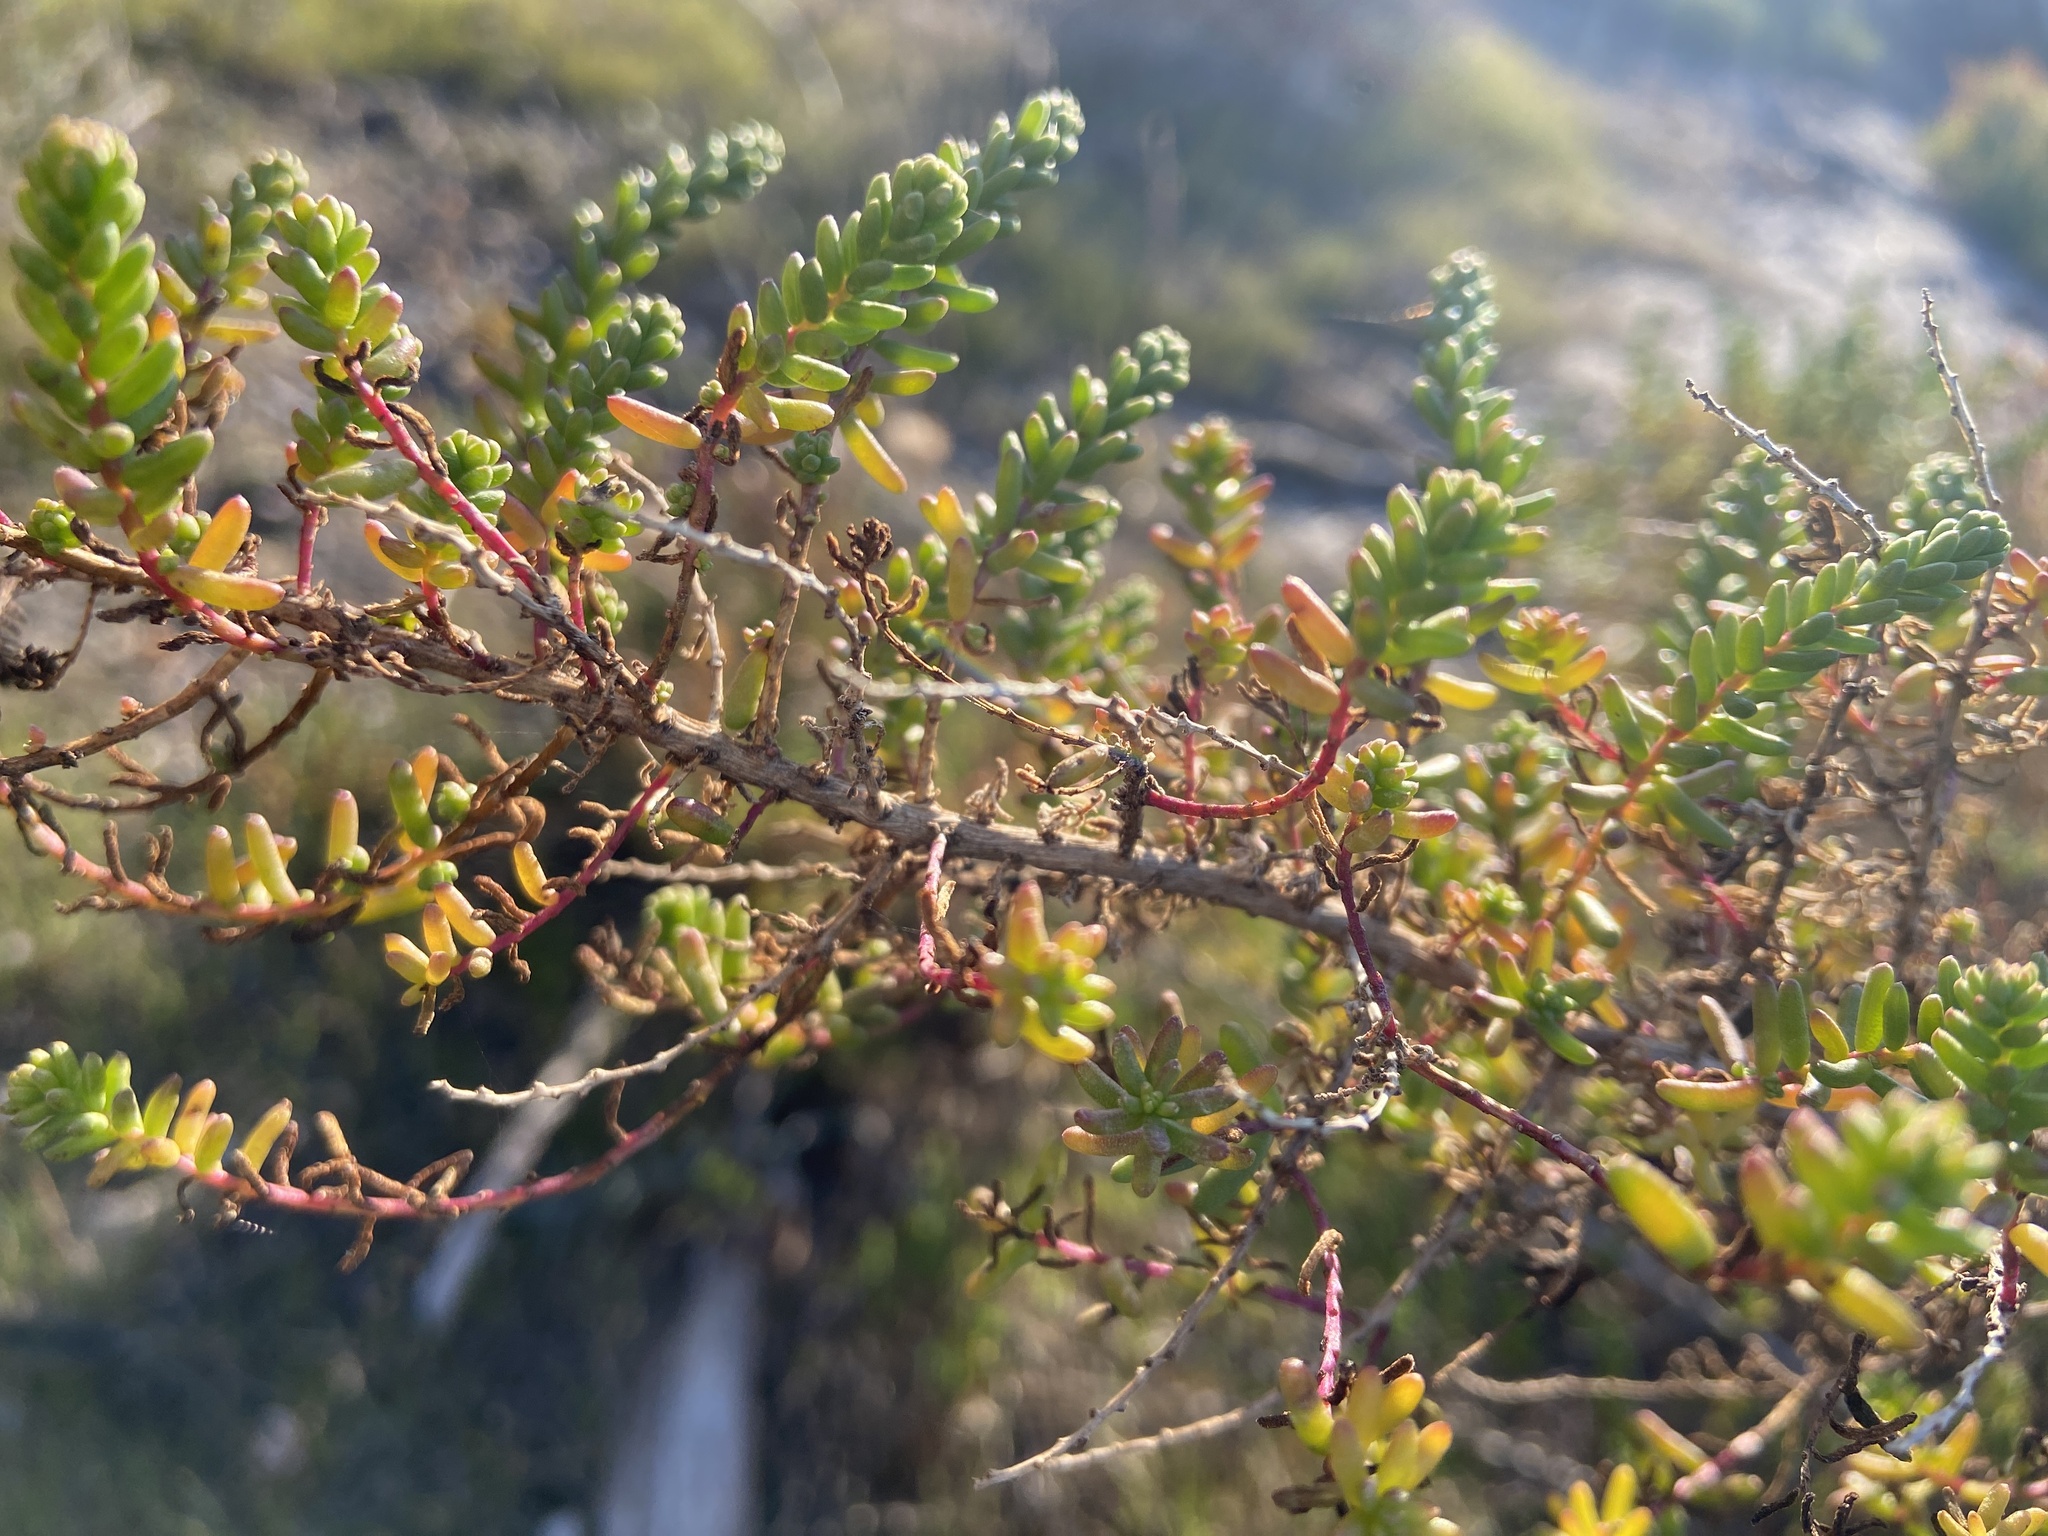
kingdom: Plantae
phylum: Tracheophyta
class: Magnoliopsida
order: Caryophyllales
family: Amaranthaceae
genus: Suaeda
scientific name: Suaeda vera
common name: Shrubby sea-blite
